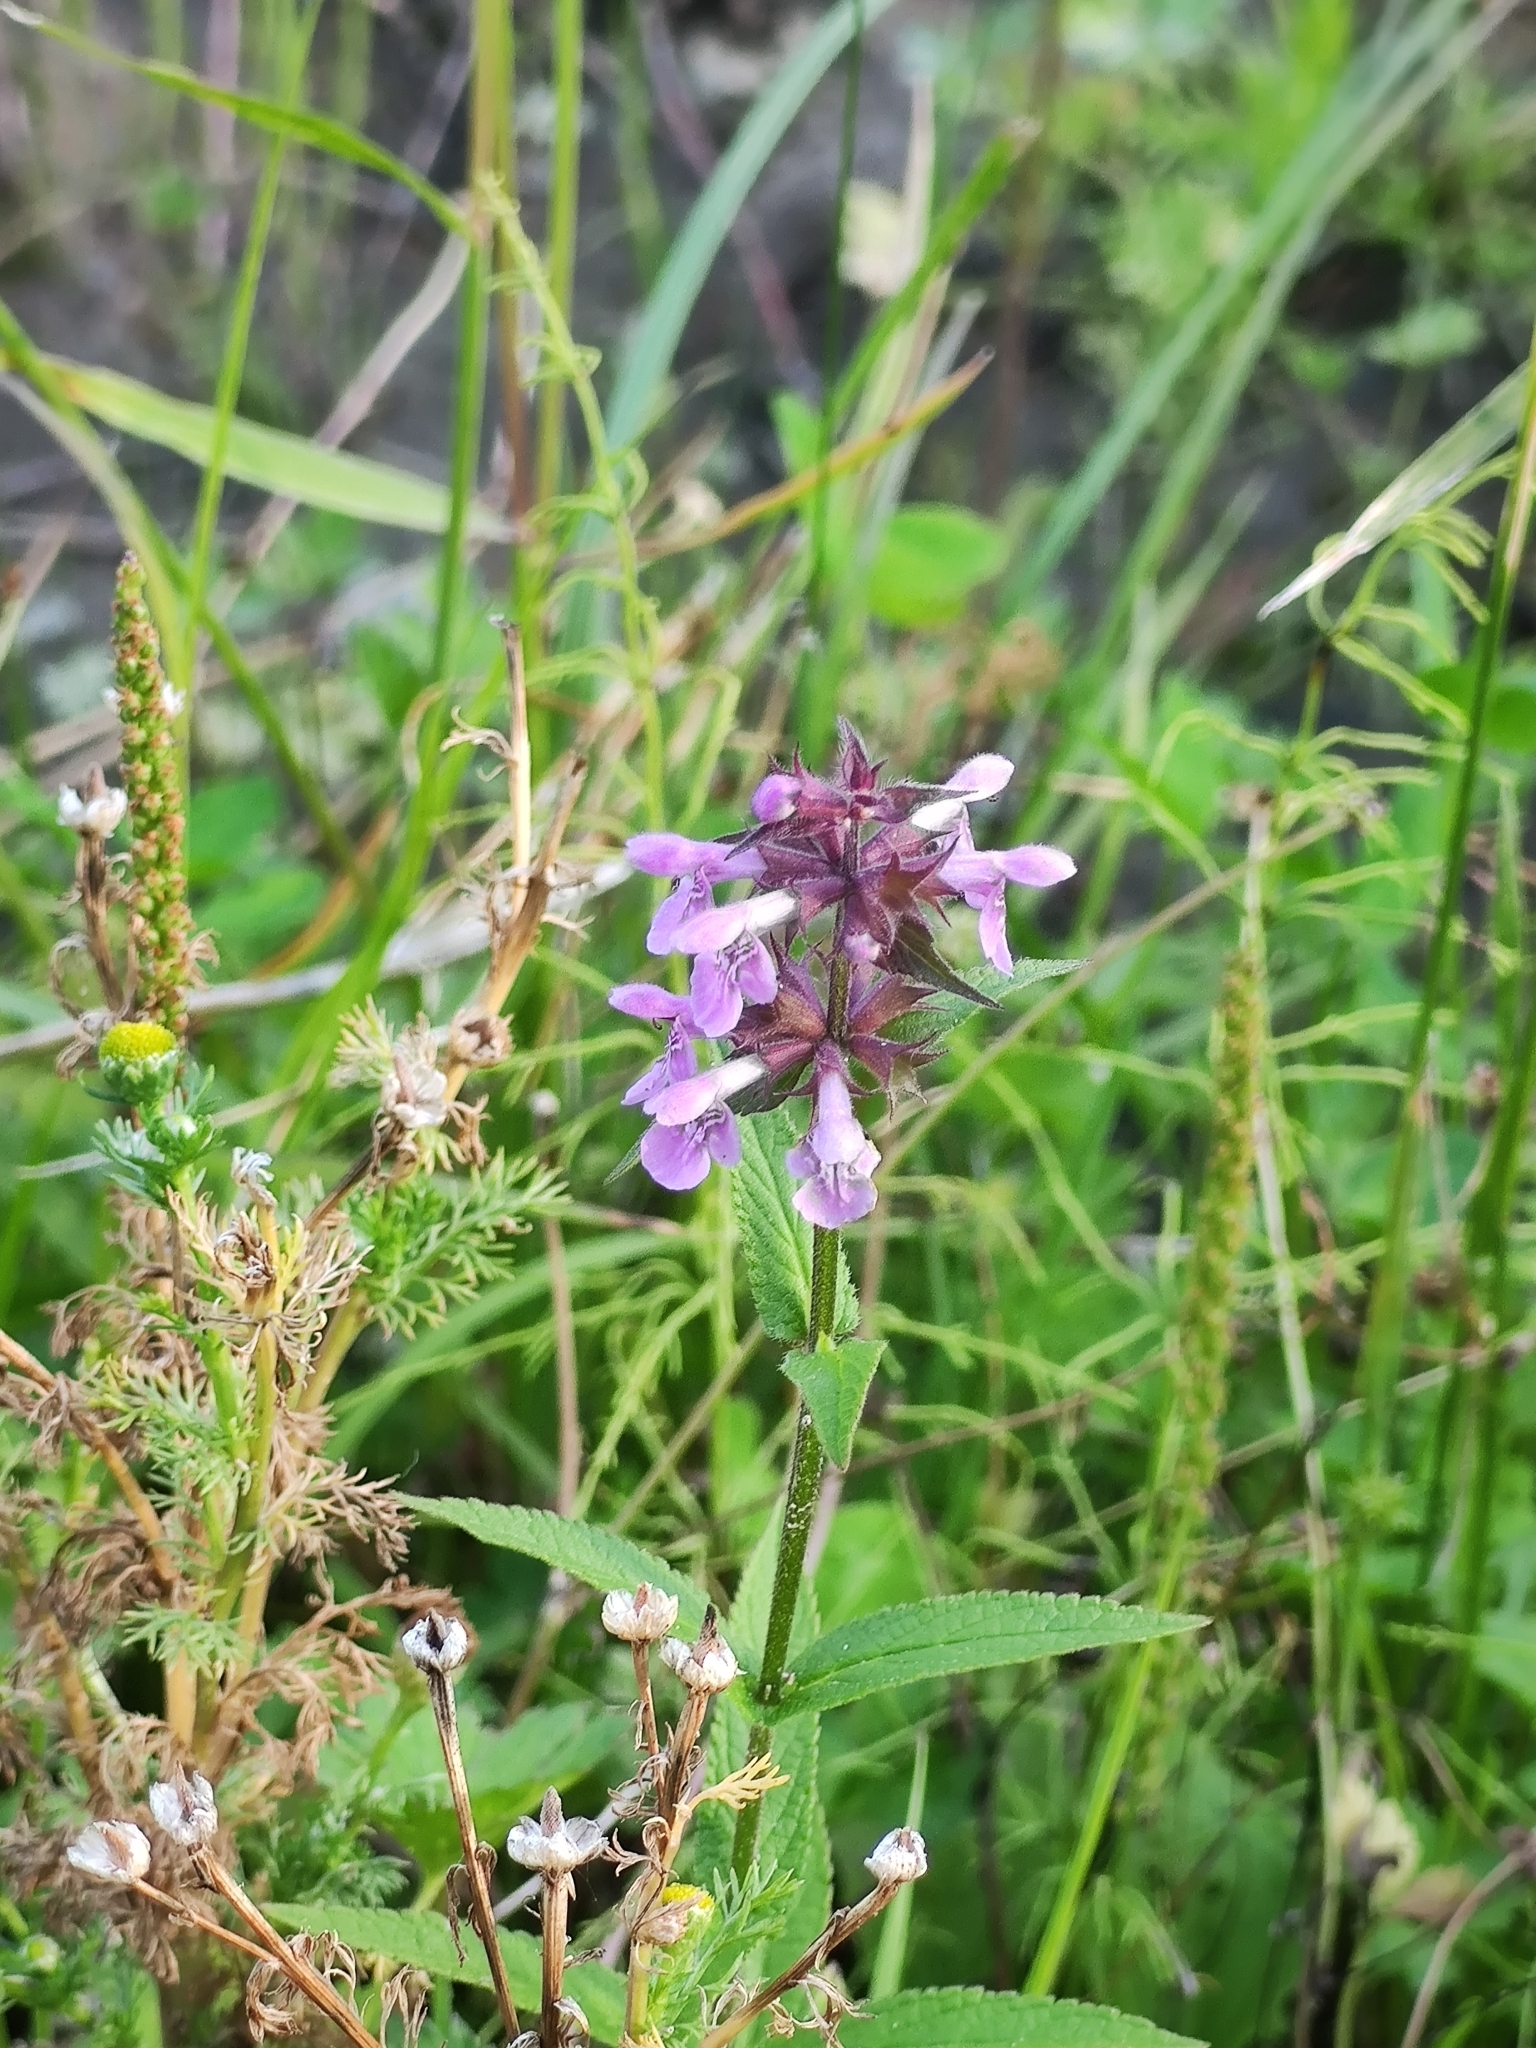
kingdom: Plantae
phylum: Tracheophyta
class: Magnoliopsida
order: Lamiales
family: Lamiaceae
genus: Stachys
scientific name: Stachys palustris
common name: Marsh woundwort
